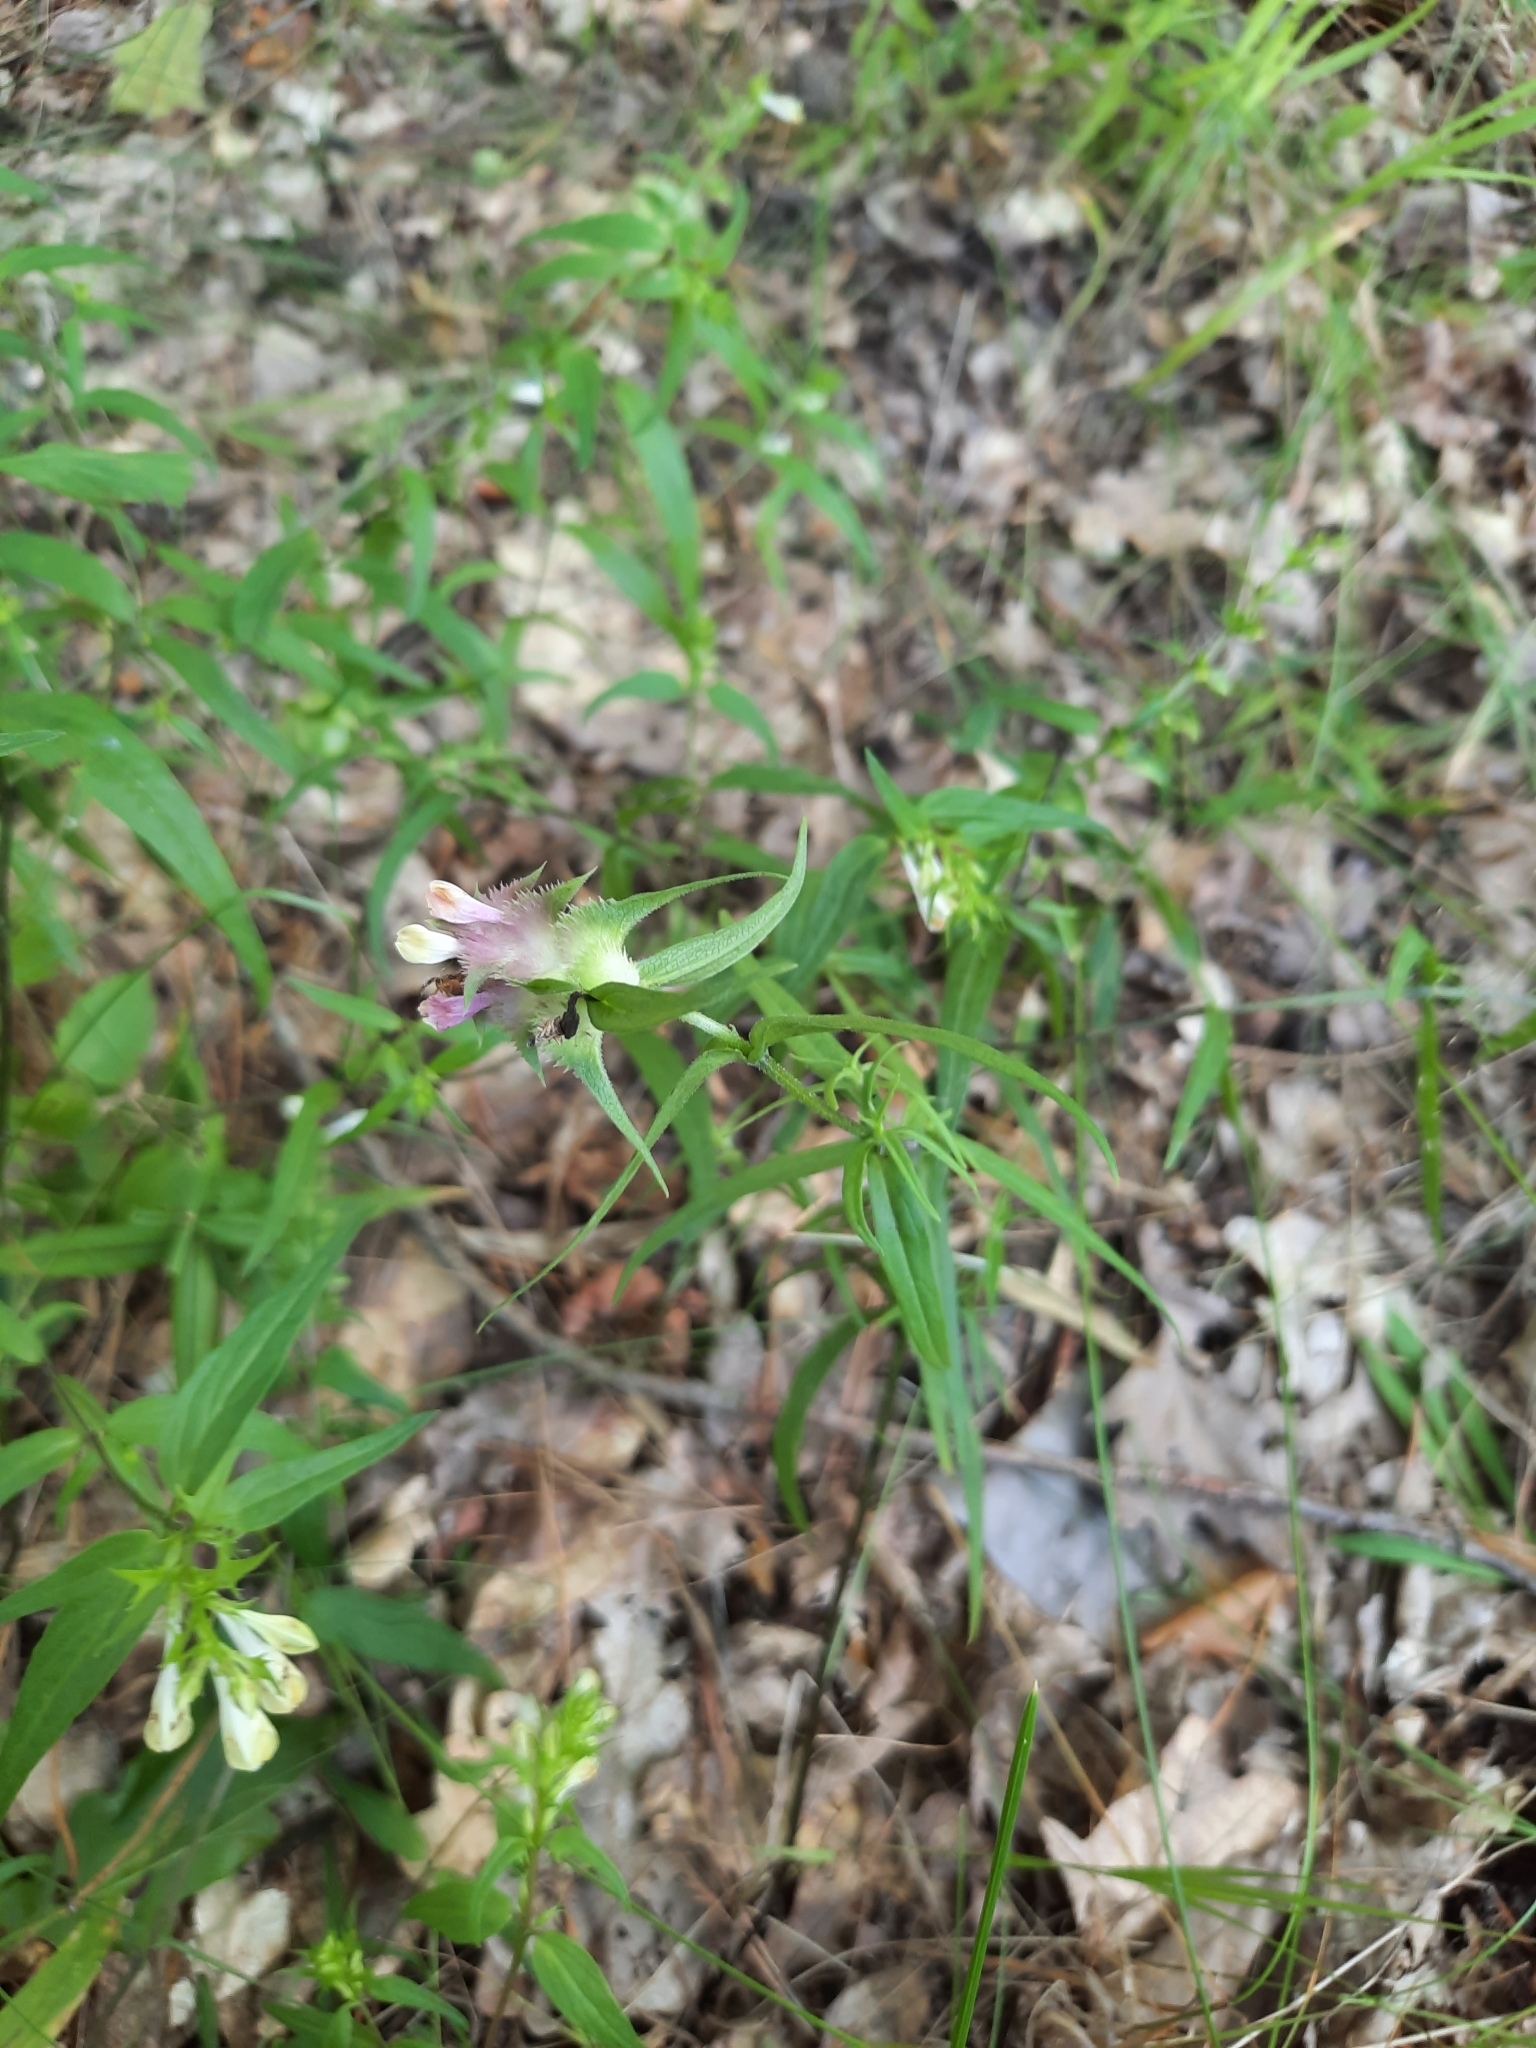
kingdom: Plantae
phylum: Tracheophyta
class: Magnoliopsida
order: Lamiales
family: Orobanchaceae
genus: Melampyrum
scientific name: Melampyrum cristatum
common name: Crested cow-wheat
